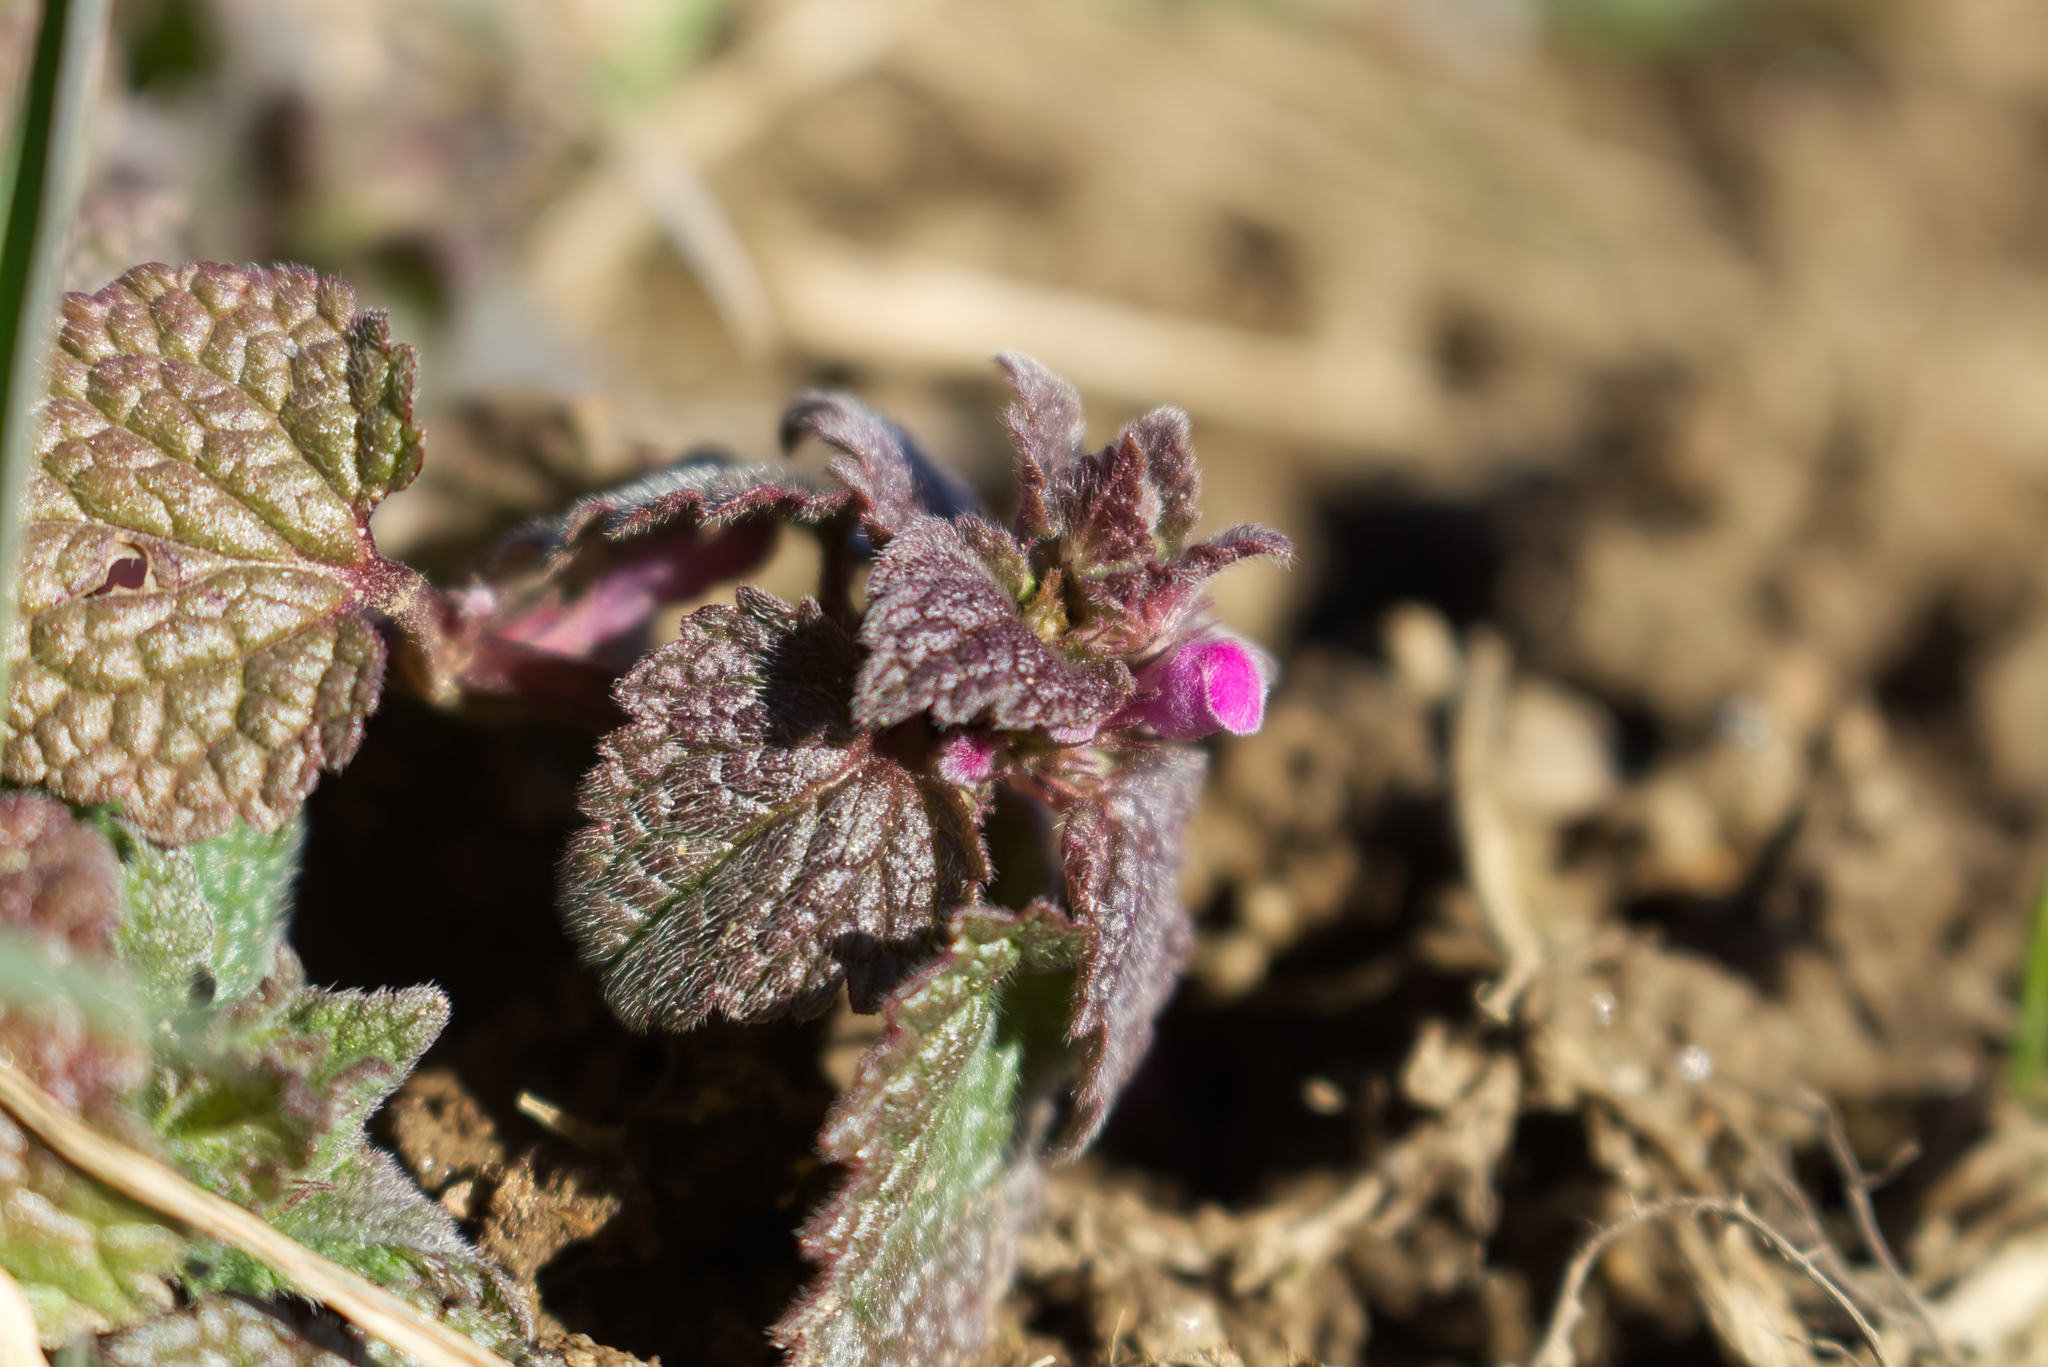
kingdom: Plantae
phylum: Tracheophyta
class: Magnoliopsida
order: Lamiales
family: Lamiaceae
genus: Lamium
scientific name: Lamium purpureum
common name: Red dead-nettle
